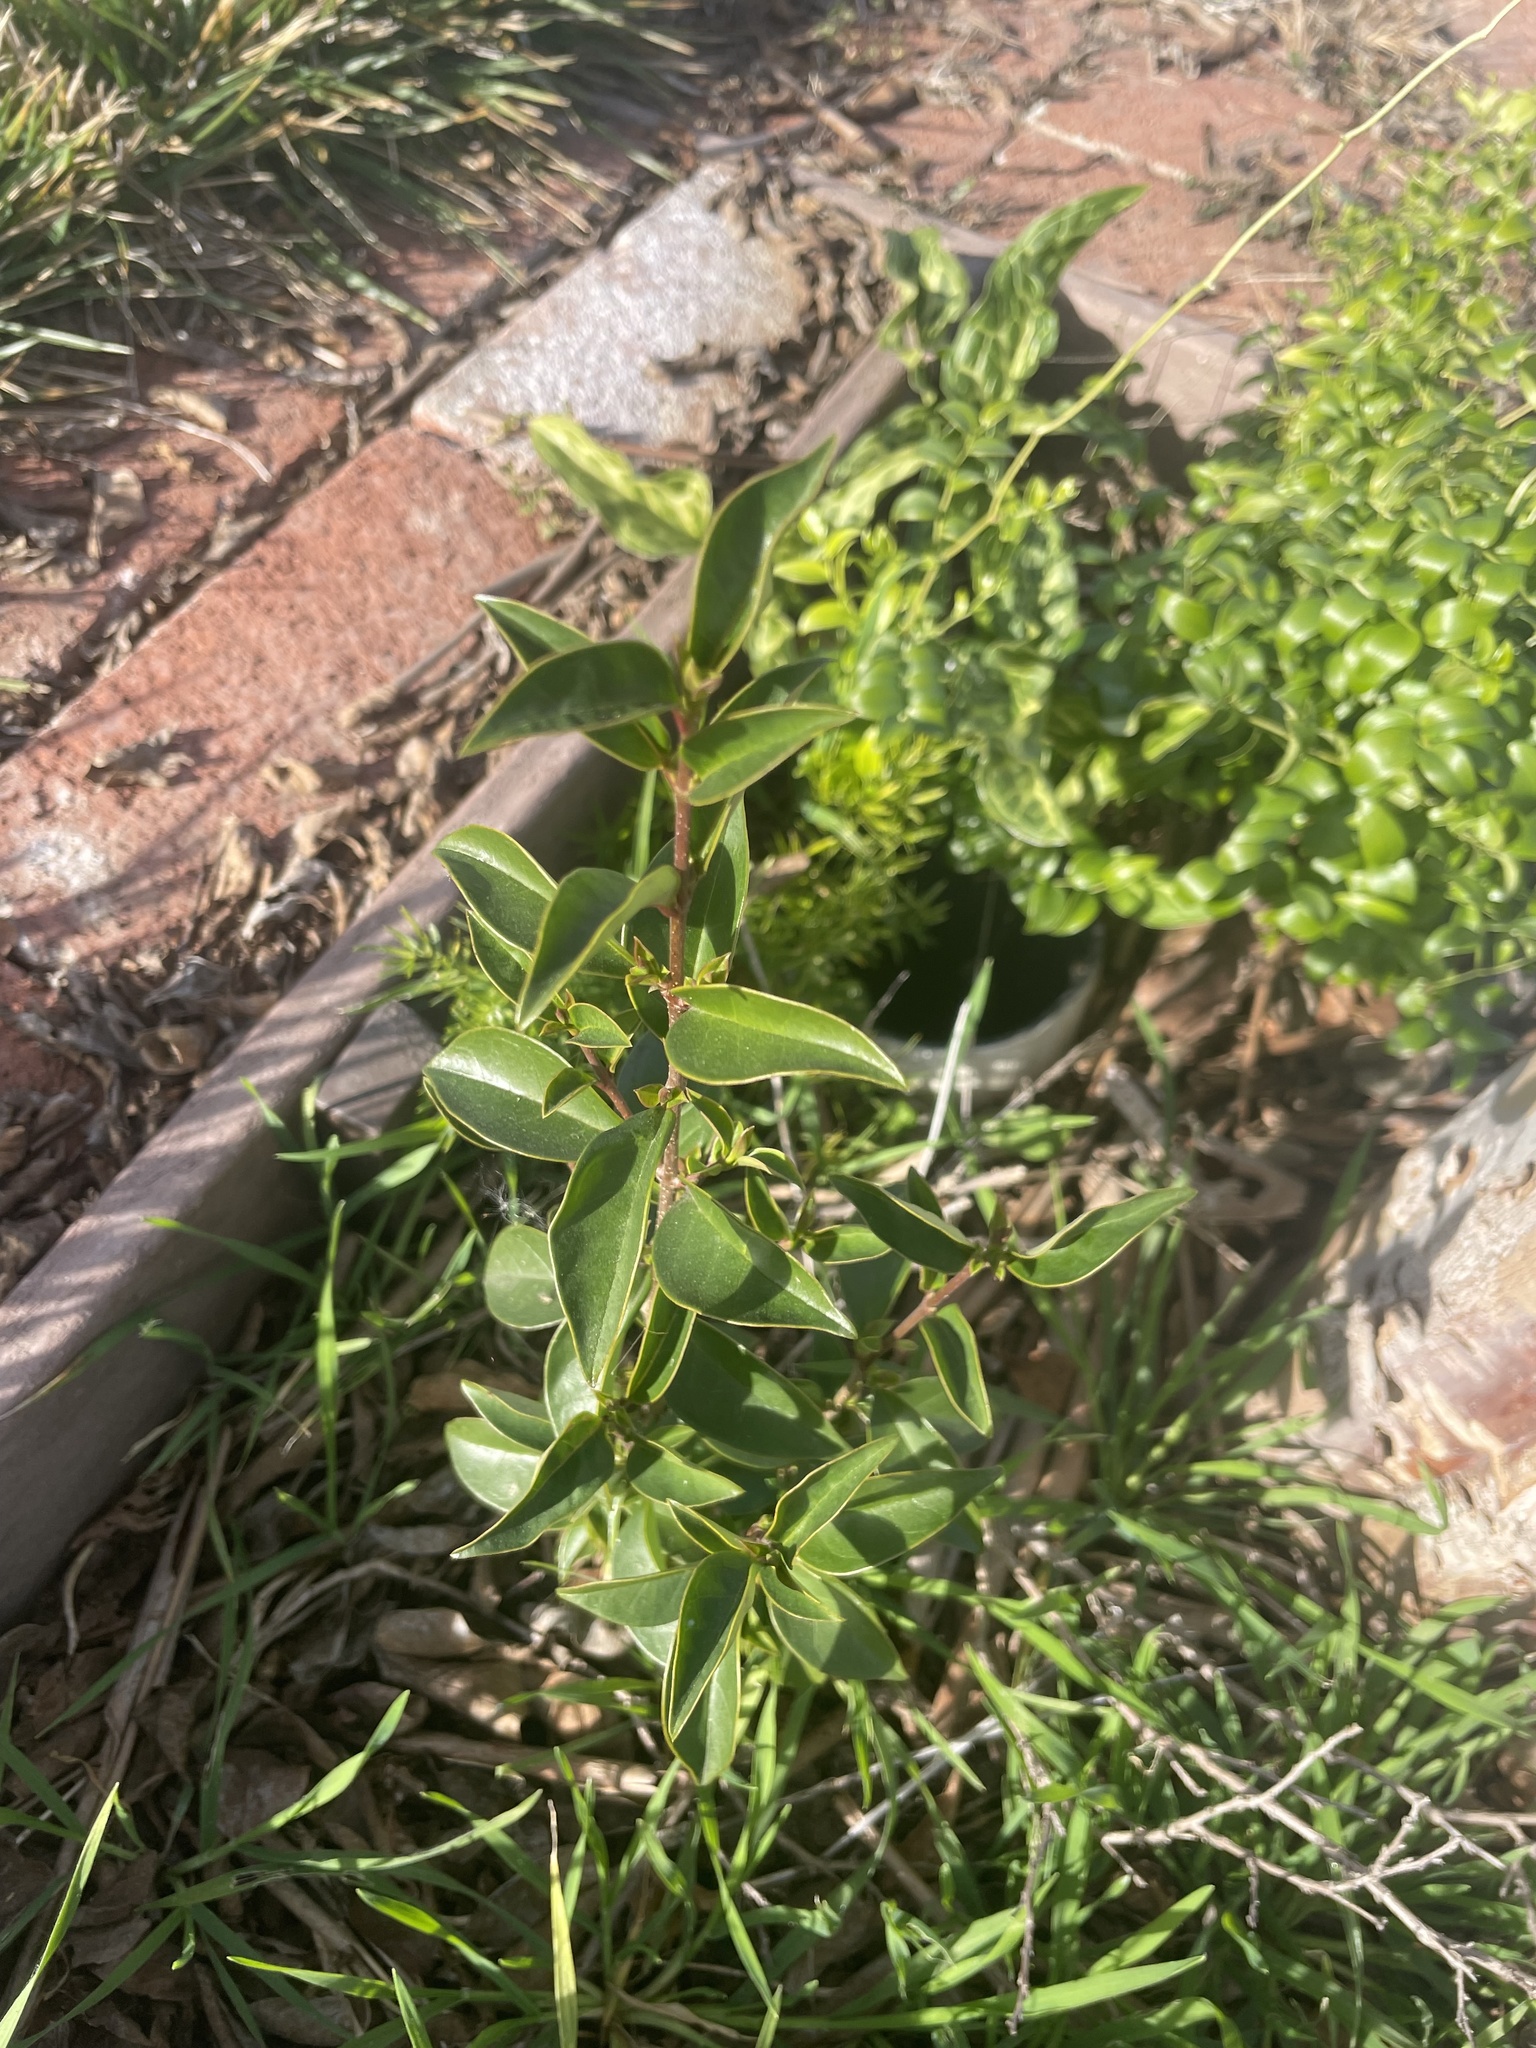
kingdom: Plantae
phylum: Tracheophyta
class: Magnoliopsida
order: Lamiales
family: Oleaceae
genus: Ligustrum
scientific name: Ligustrum lucidum
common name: Glossy privet
